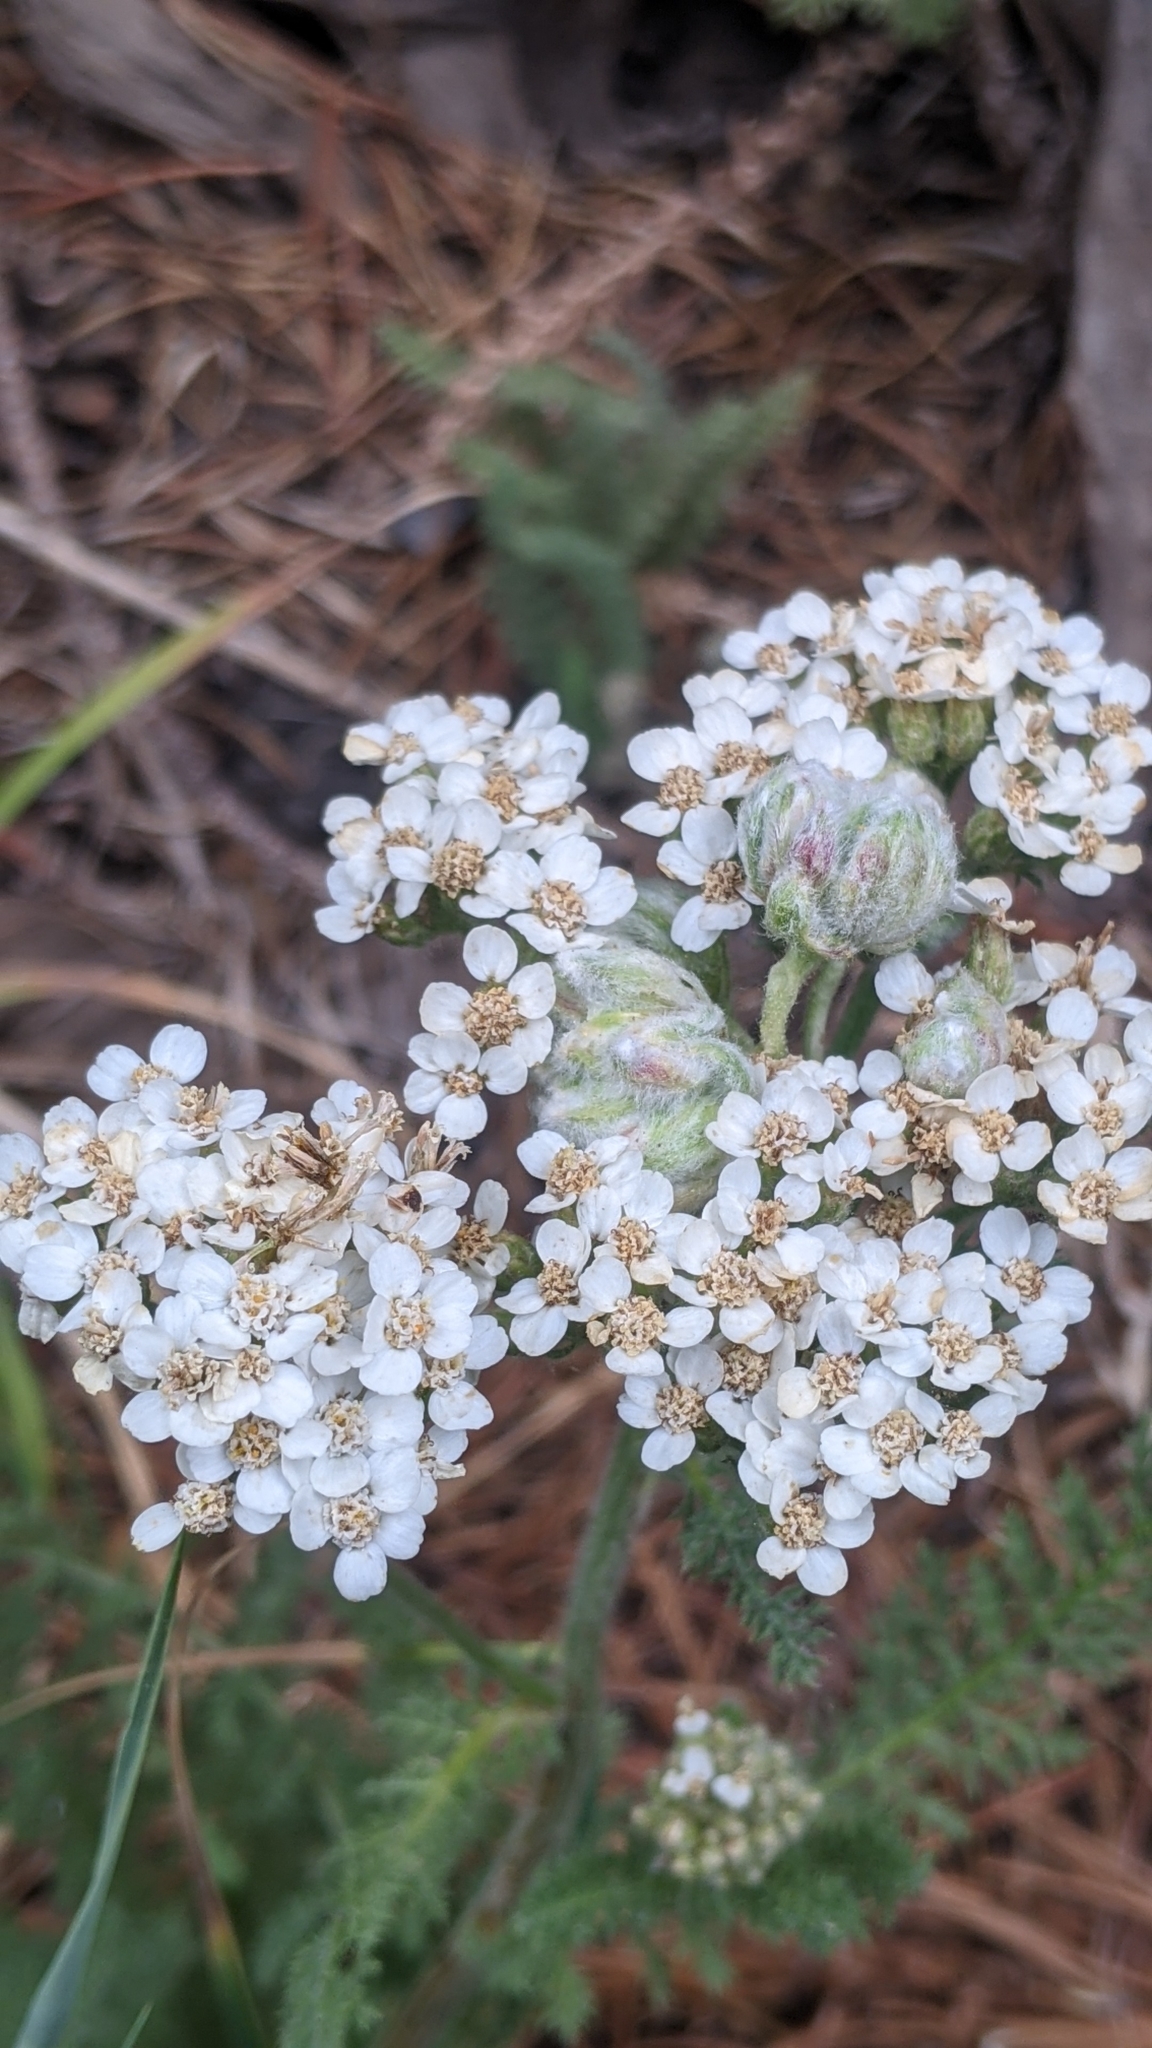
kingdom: Plantae
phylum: Tracheophyta
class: Magnoliopsida
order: Asterales
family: Asteraceae
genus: Achillea
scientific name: Achillea millefolium
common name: Yarrow
